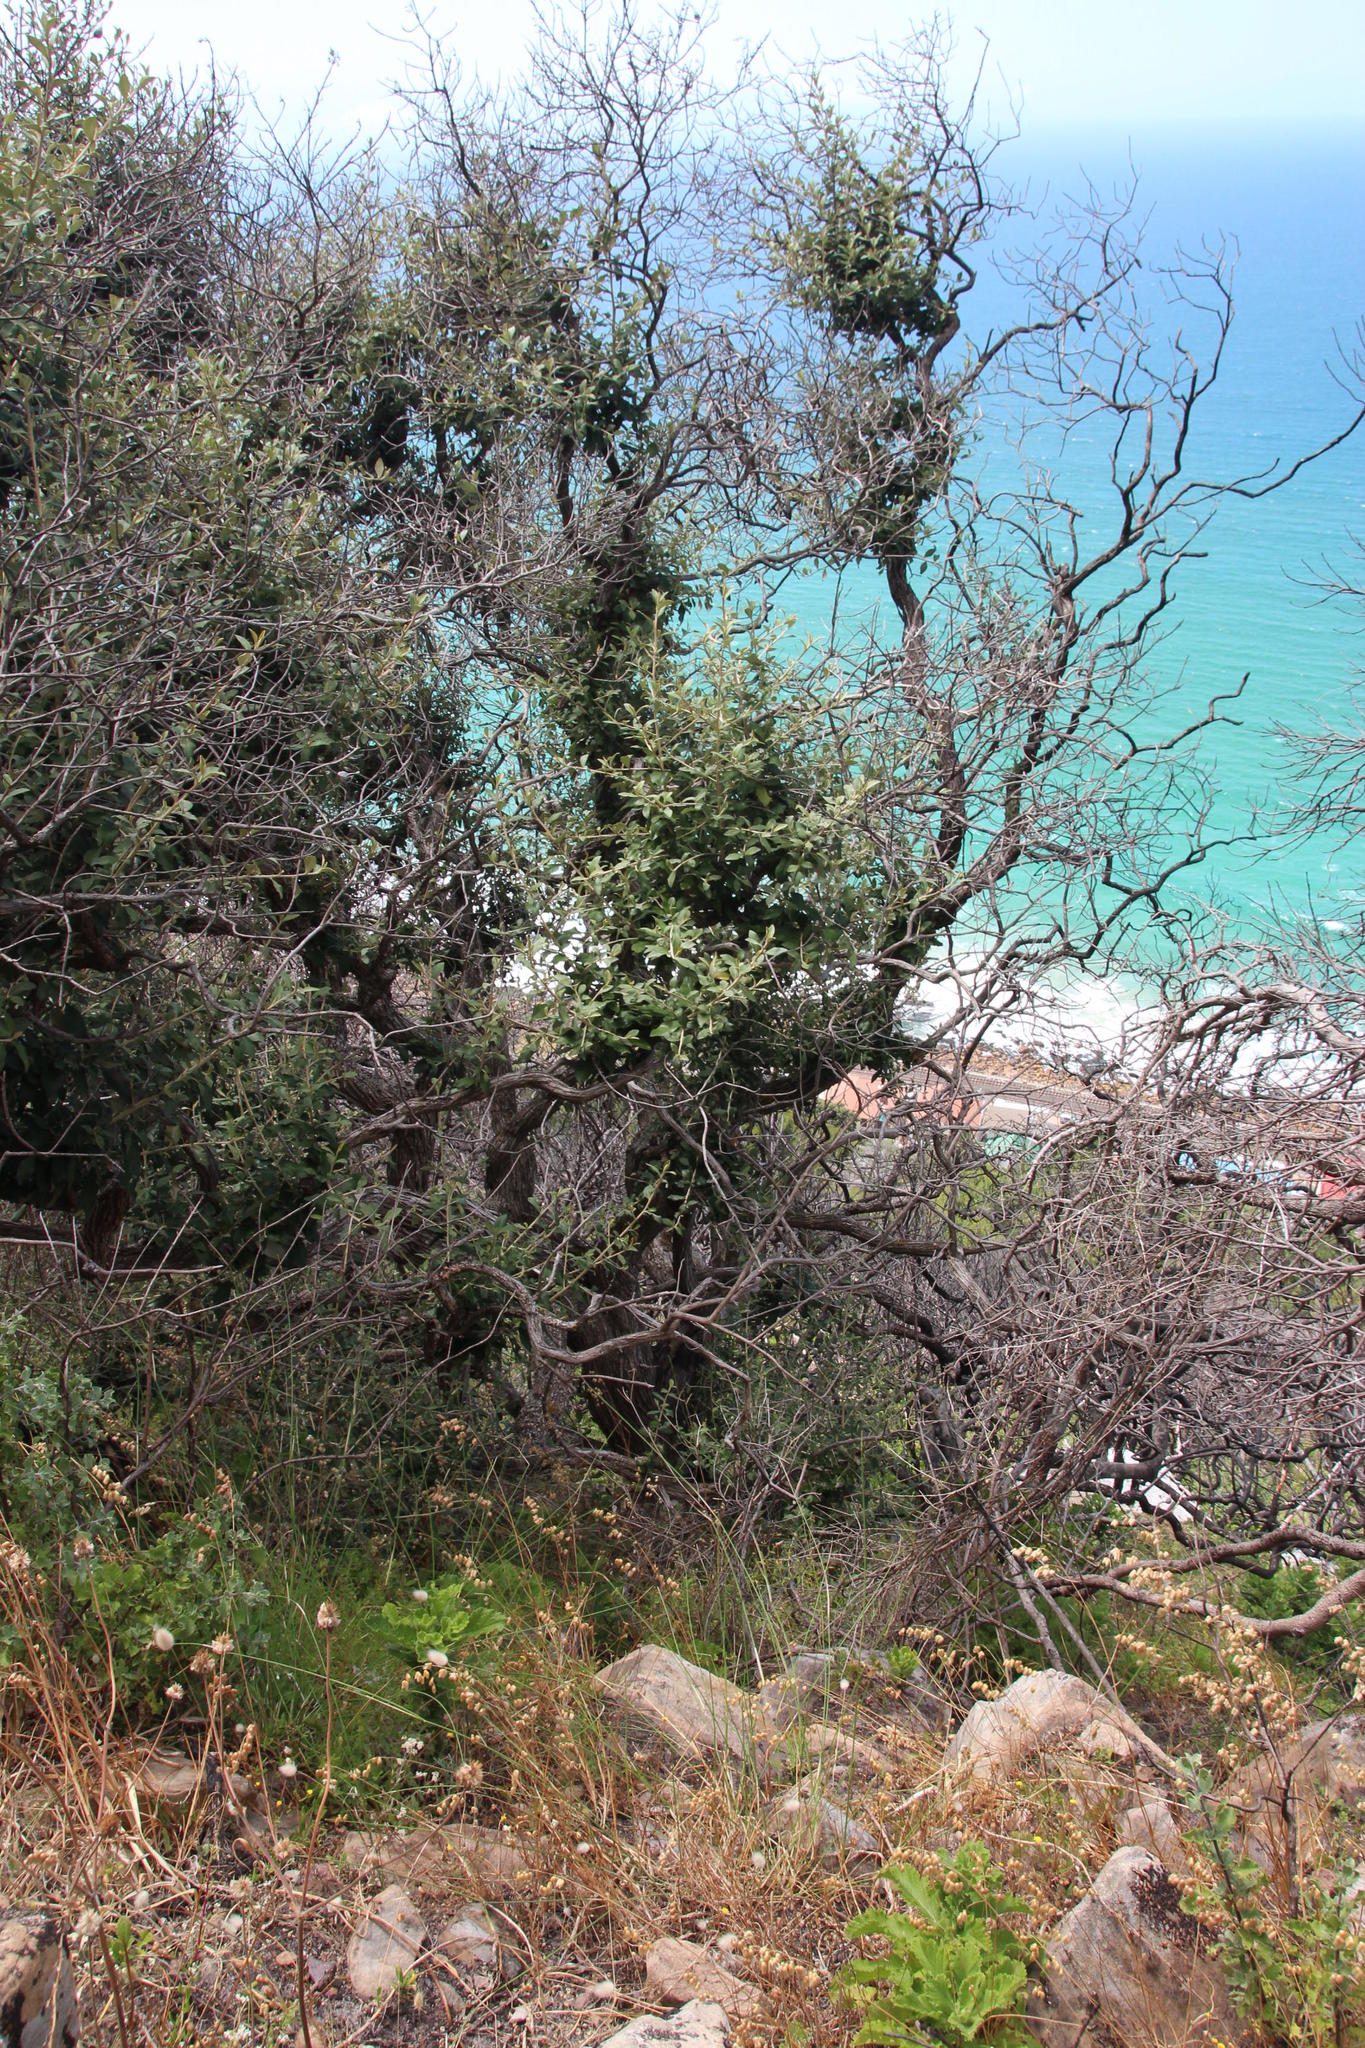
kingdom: Plantae
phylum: Tracheophyta
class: Magnoliopsida
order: Asterales
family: Asteraceae
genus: Tarchonanthus
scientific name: Tarchonanthus littoralis
